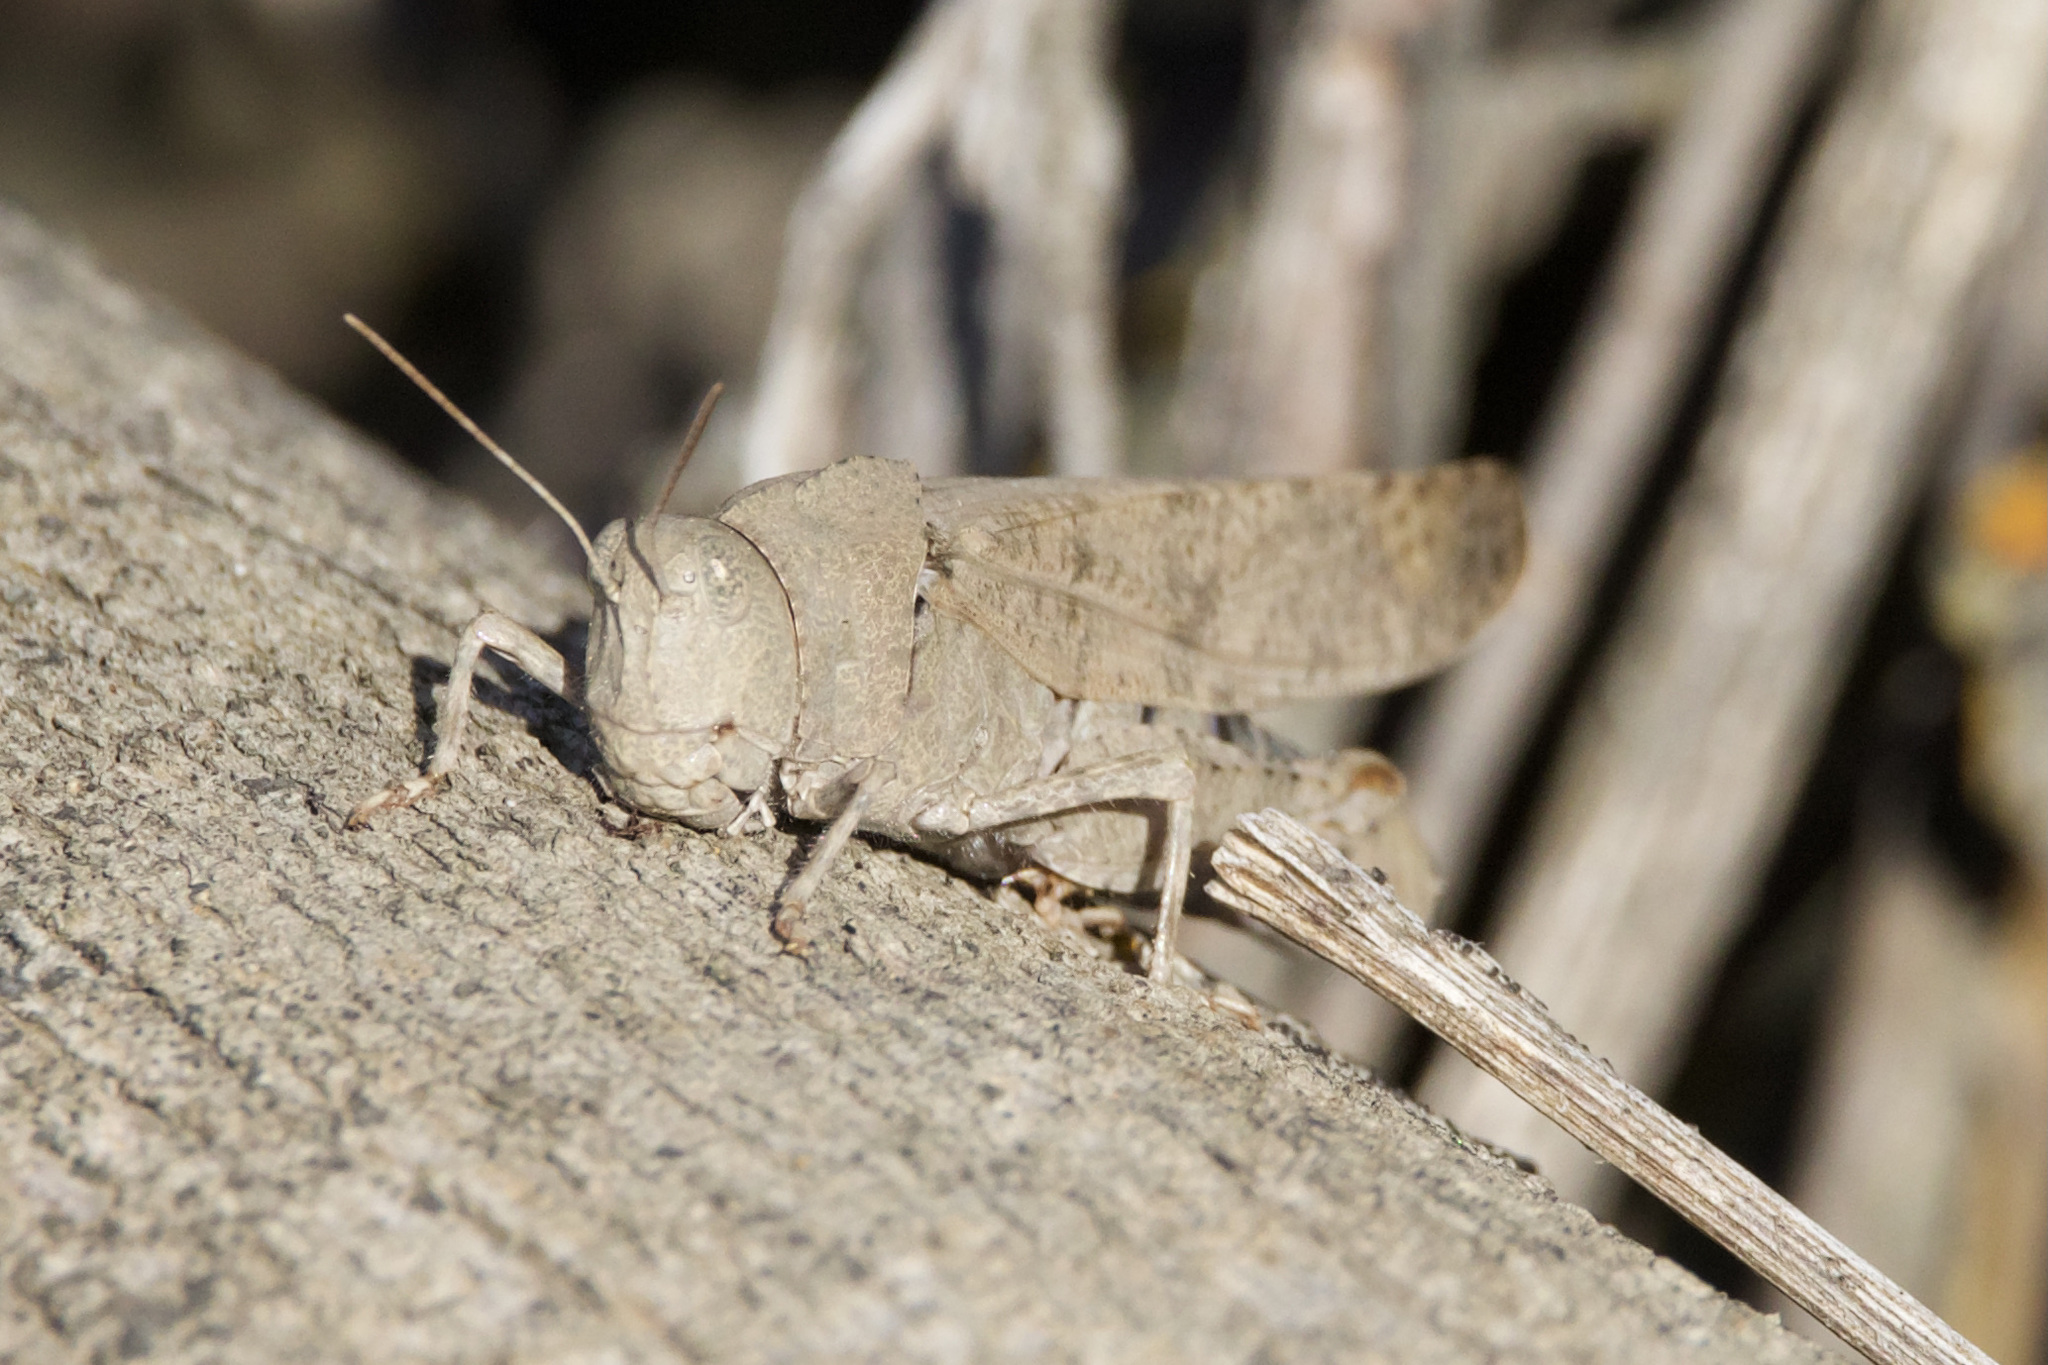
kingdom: Animalia
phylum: Arthropoda
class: Insecta
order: Orthoptera
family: Acrididae
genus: Dissosteira
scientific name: Dissosteira carolina
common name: Carolina grasshopper
